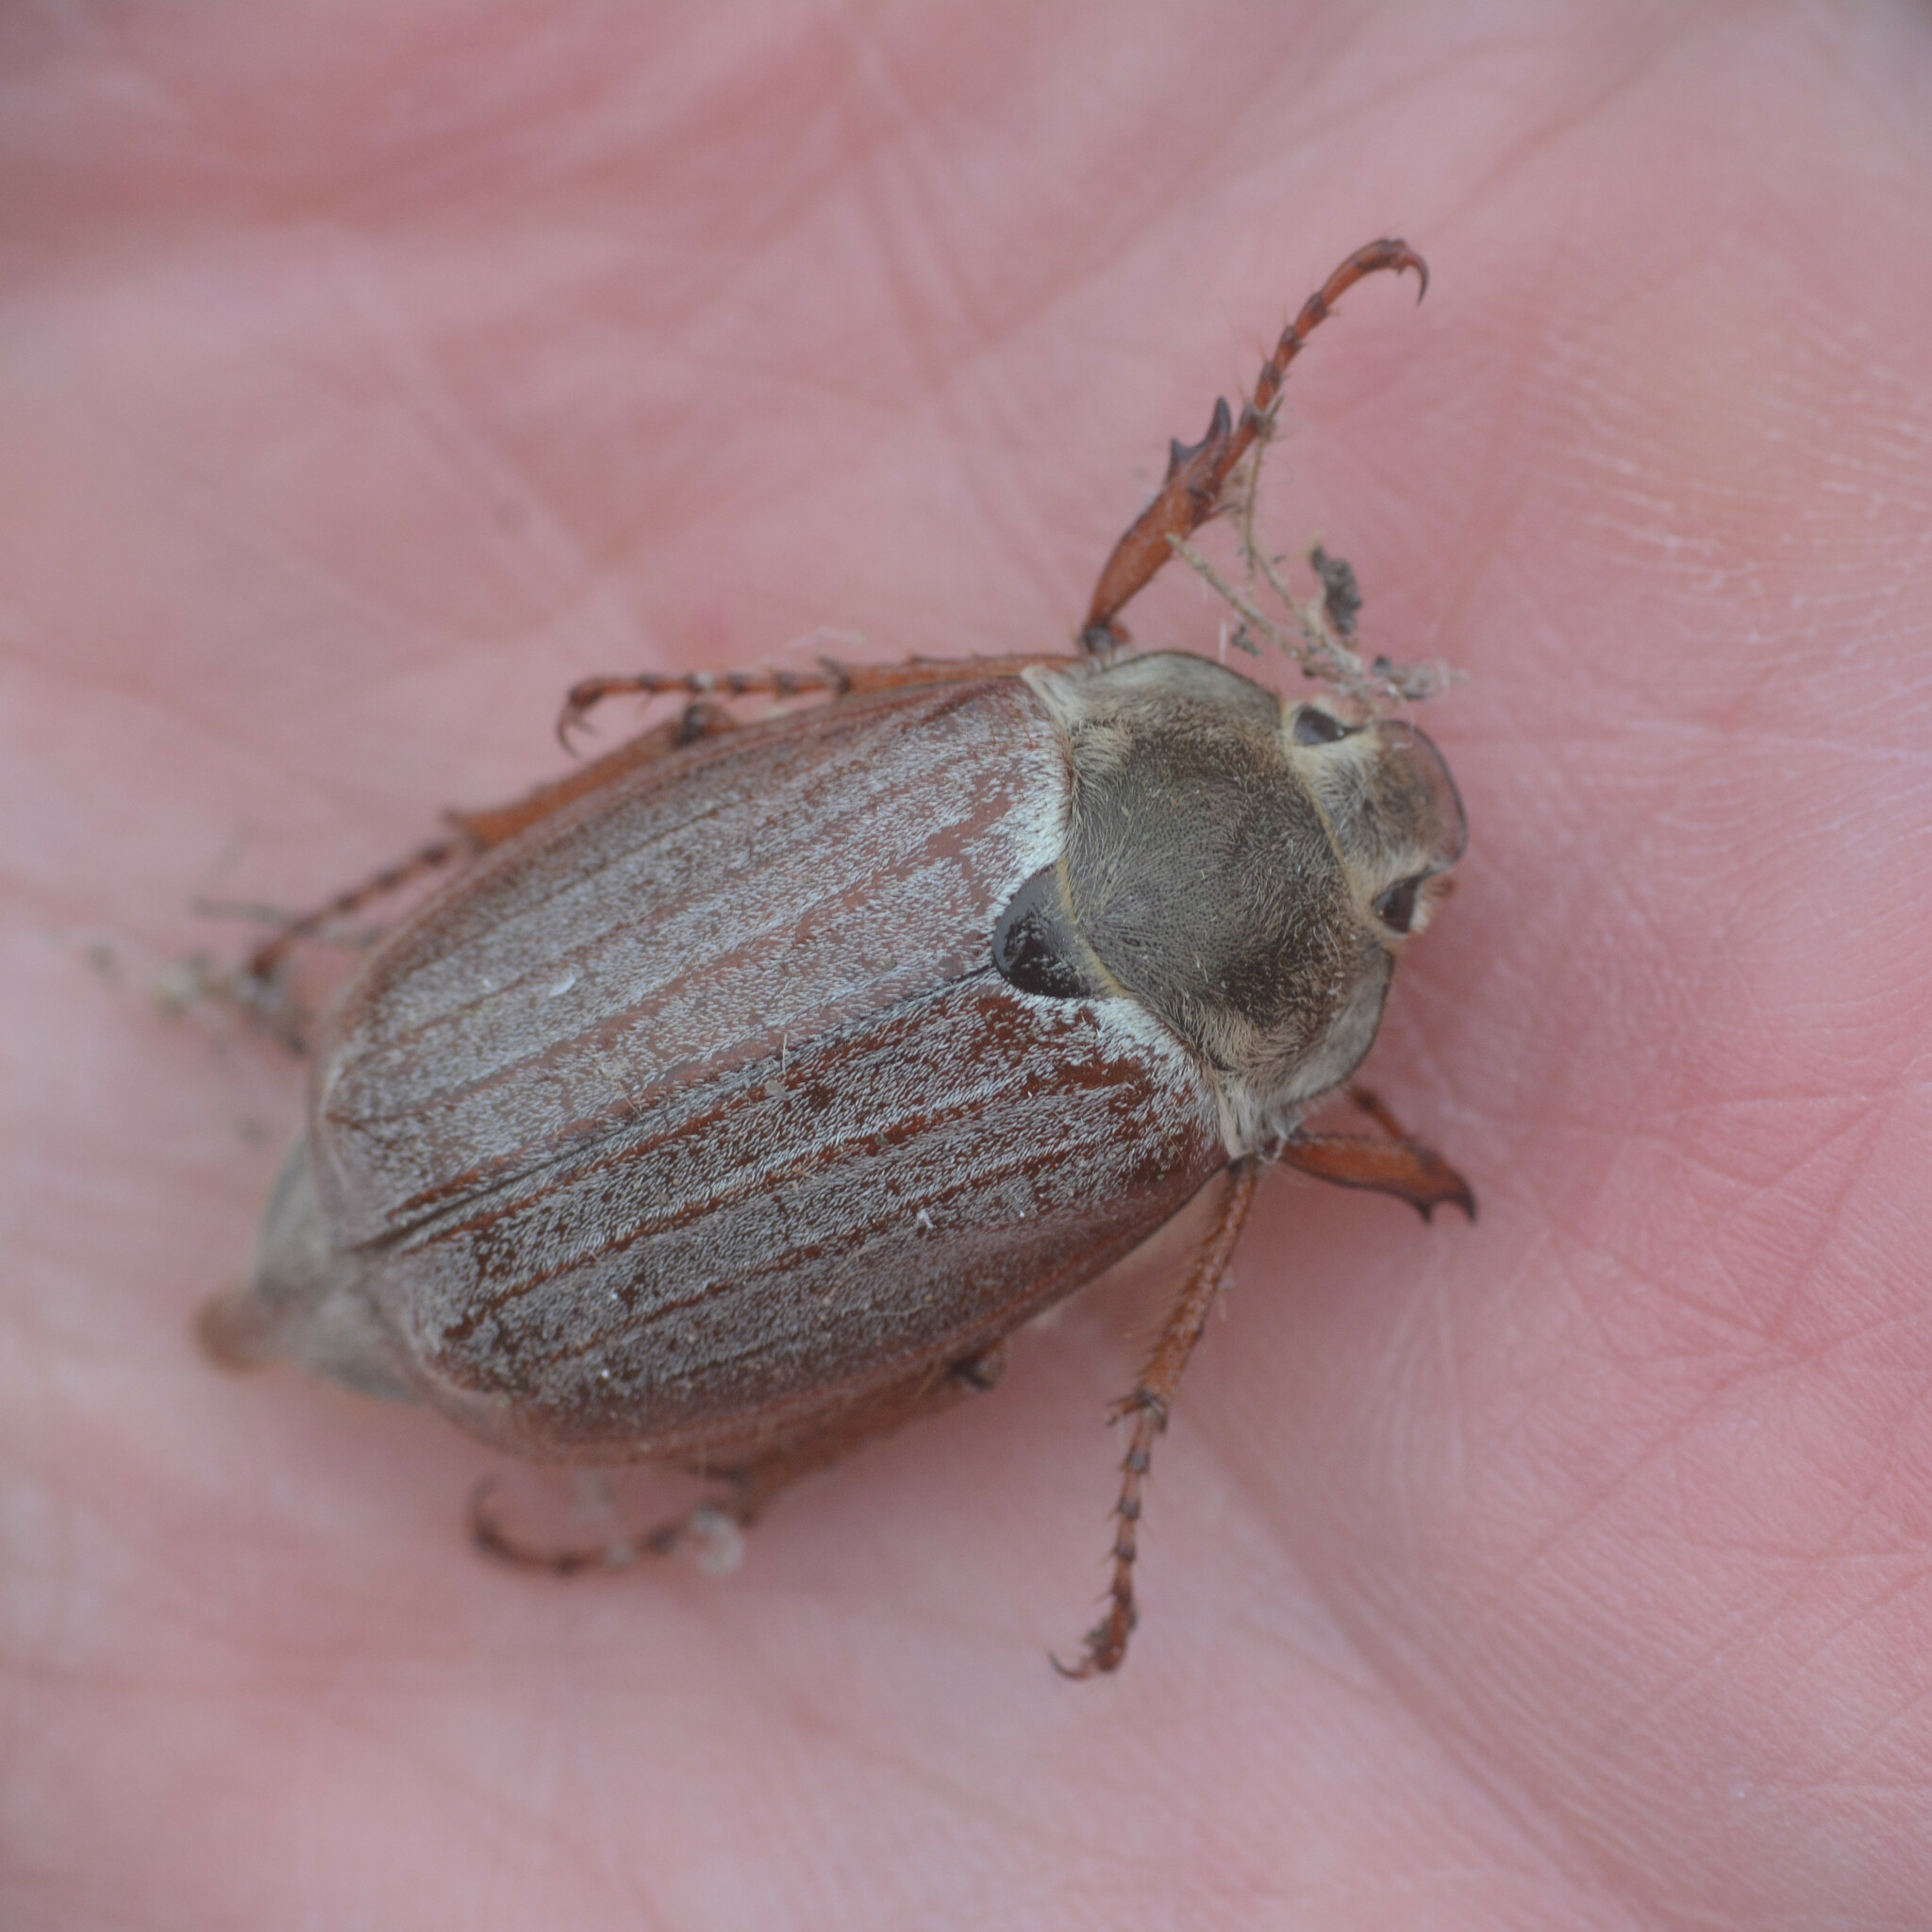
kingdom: Animalia
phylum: Arthropoda
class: Insecta
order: Coleoptera
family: Scarabaeidae
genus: Melolontha
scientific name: Melolontha melolontha
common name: Cockchafer maybeetle
